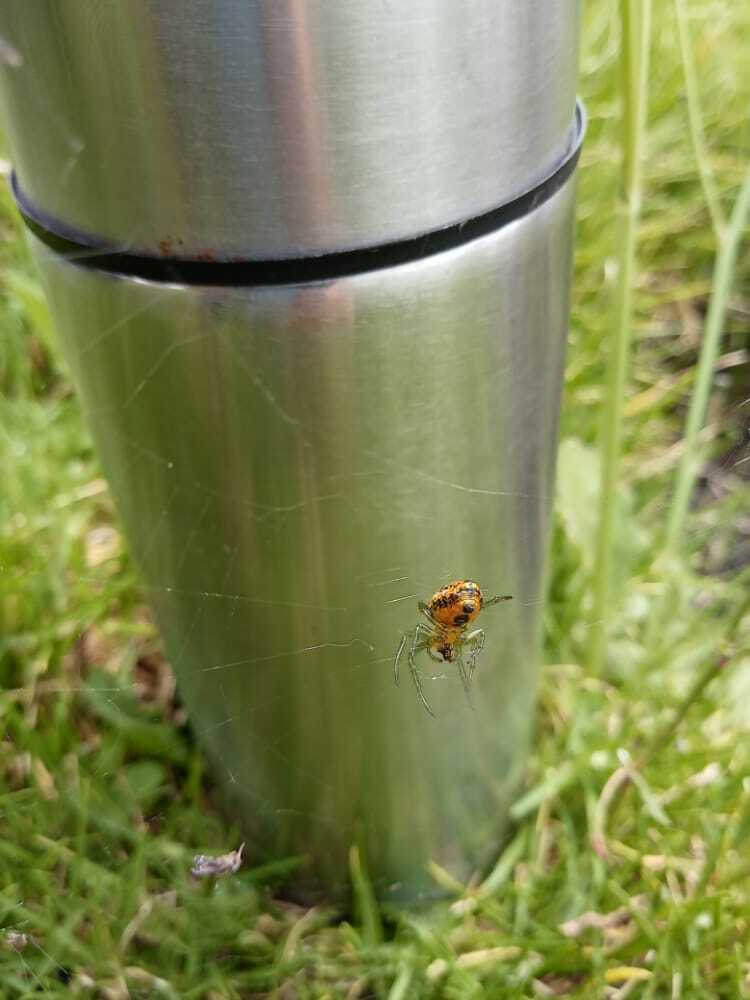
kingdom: Animalia
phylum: Arthropoda
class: Arachnida
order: Araneae
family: Araneidae
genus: Alpaida
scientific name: Alpaida variabilis
